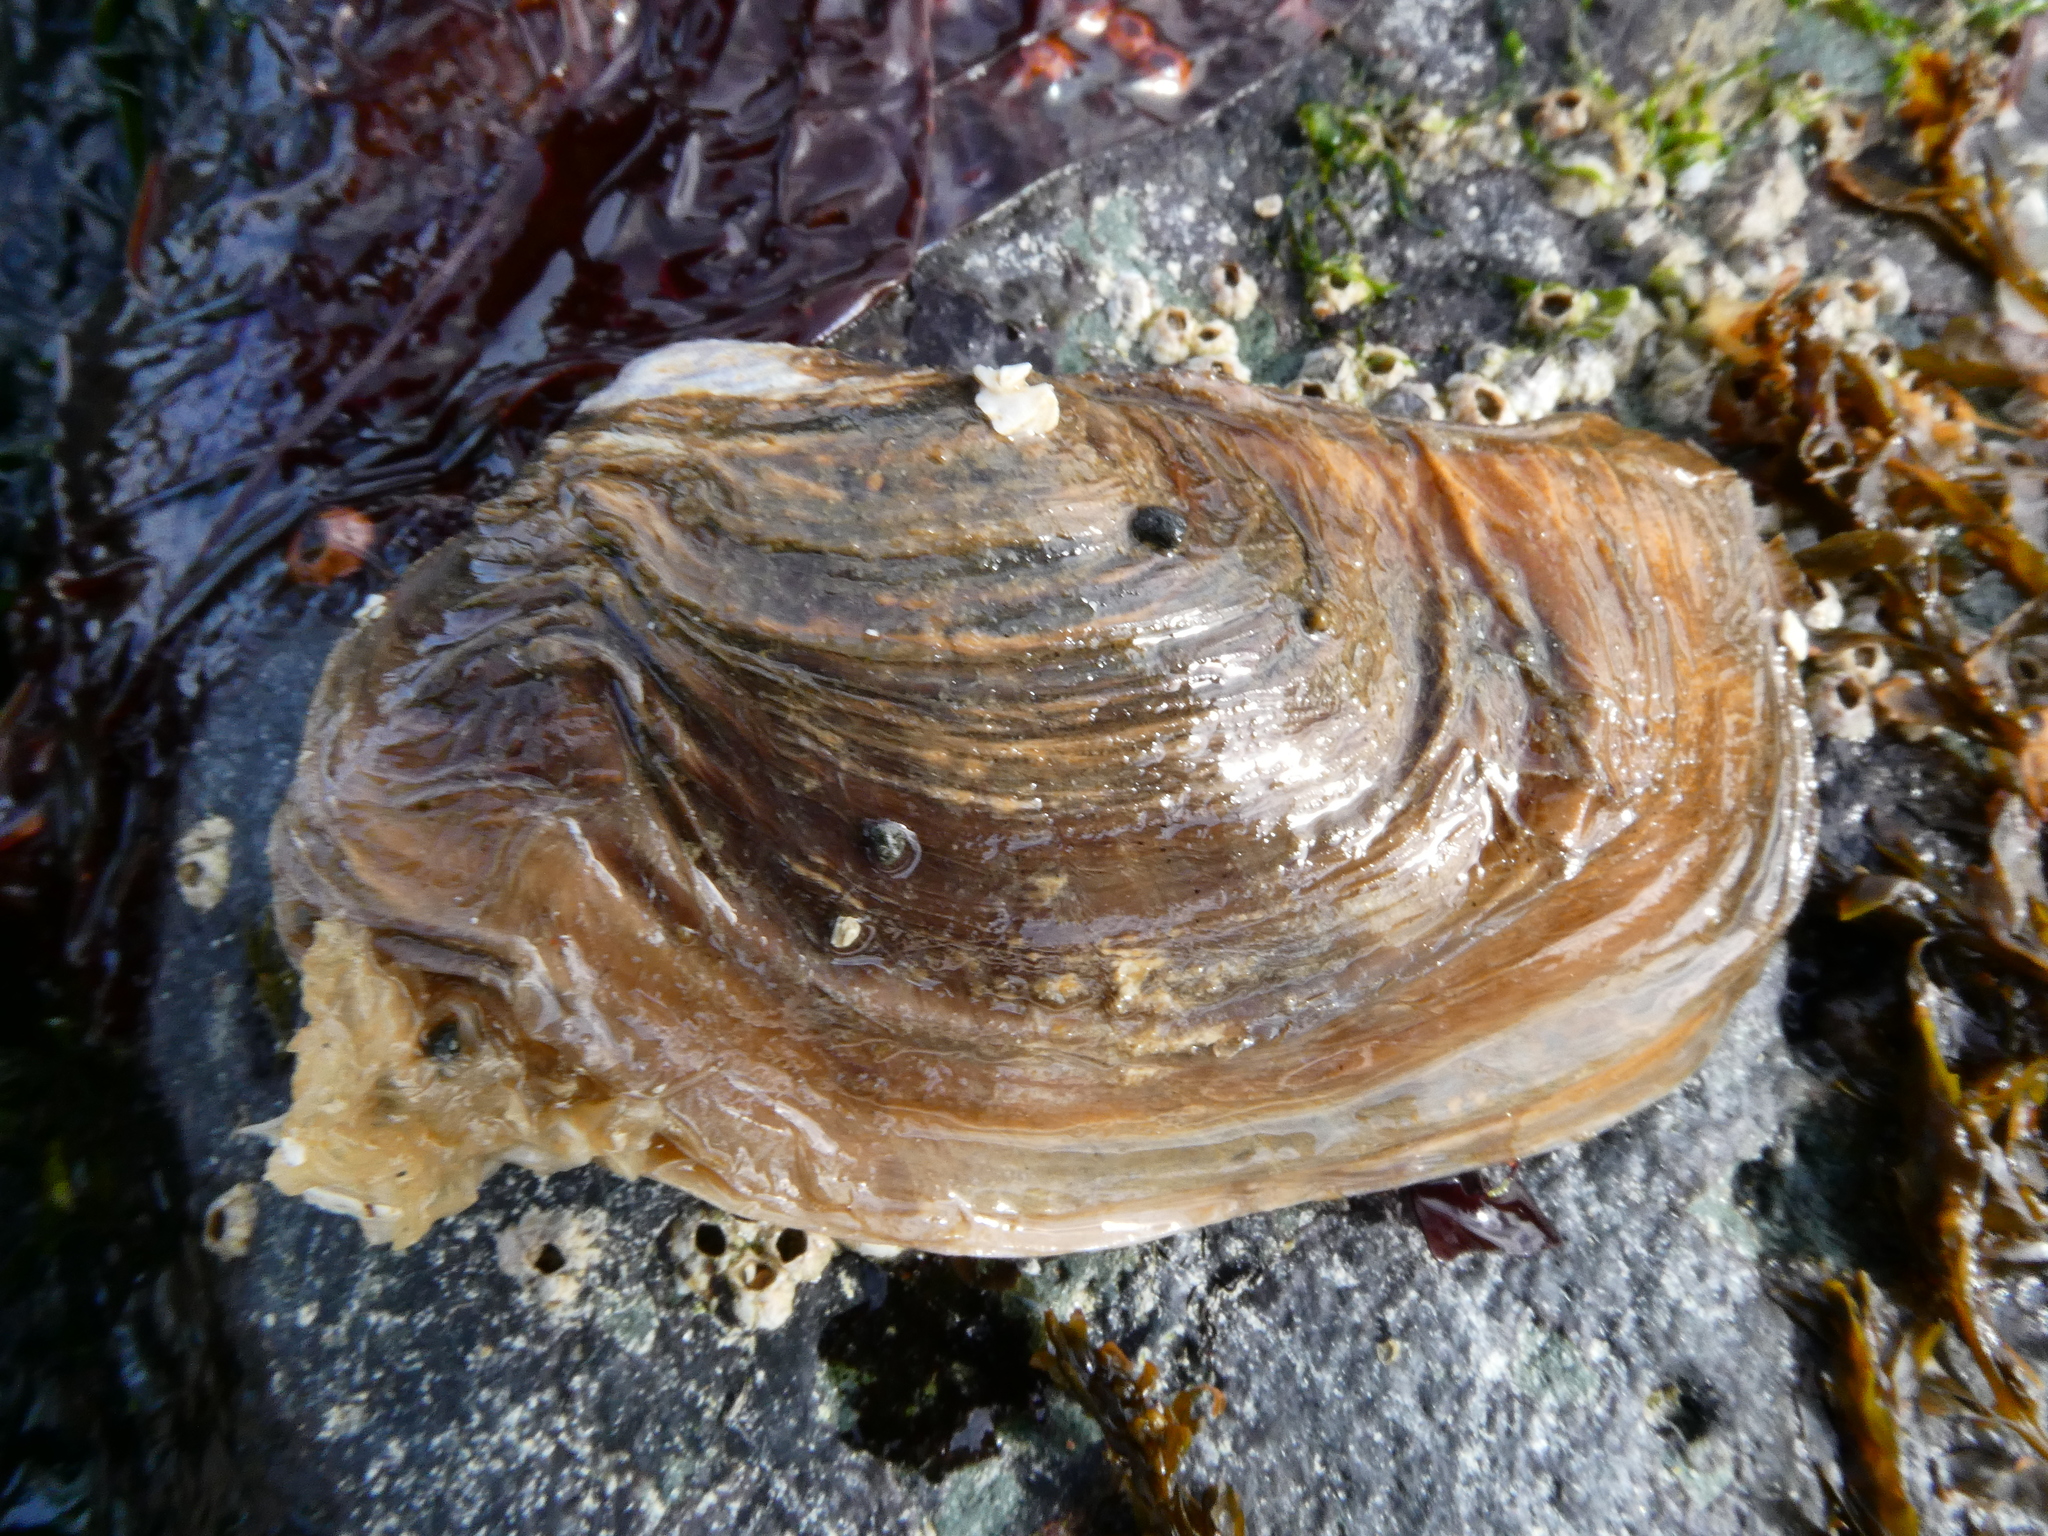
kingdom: Animalia
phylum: Mollusca
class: Bivalvia
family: Lyonsiidae
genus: Entodesma
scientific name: Entodesma navicula
